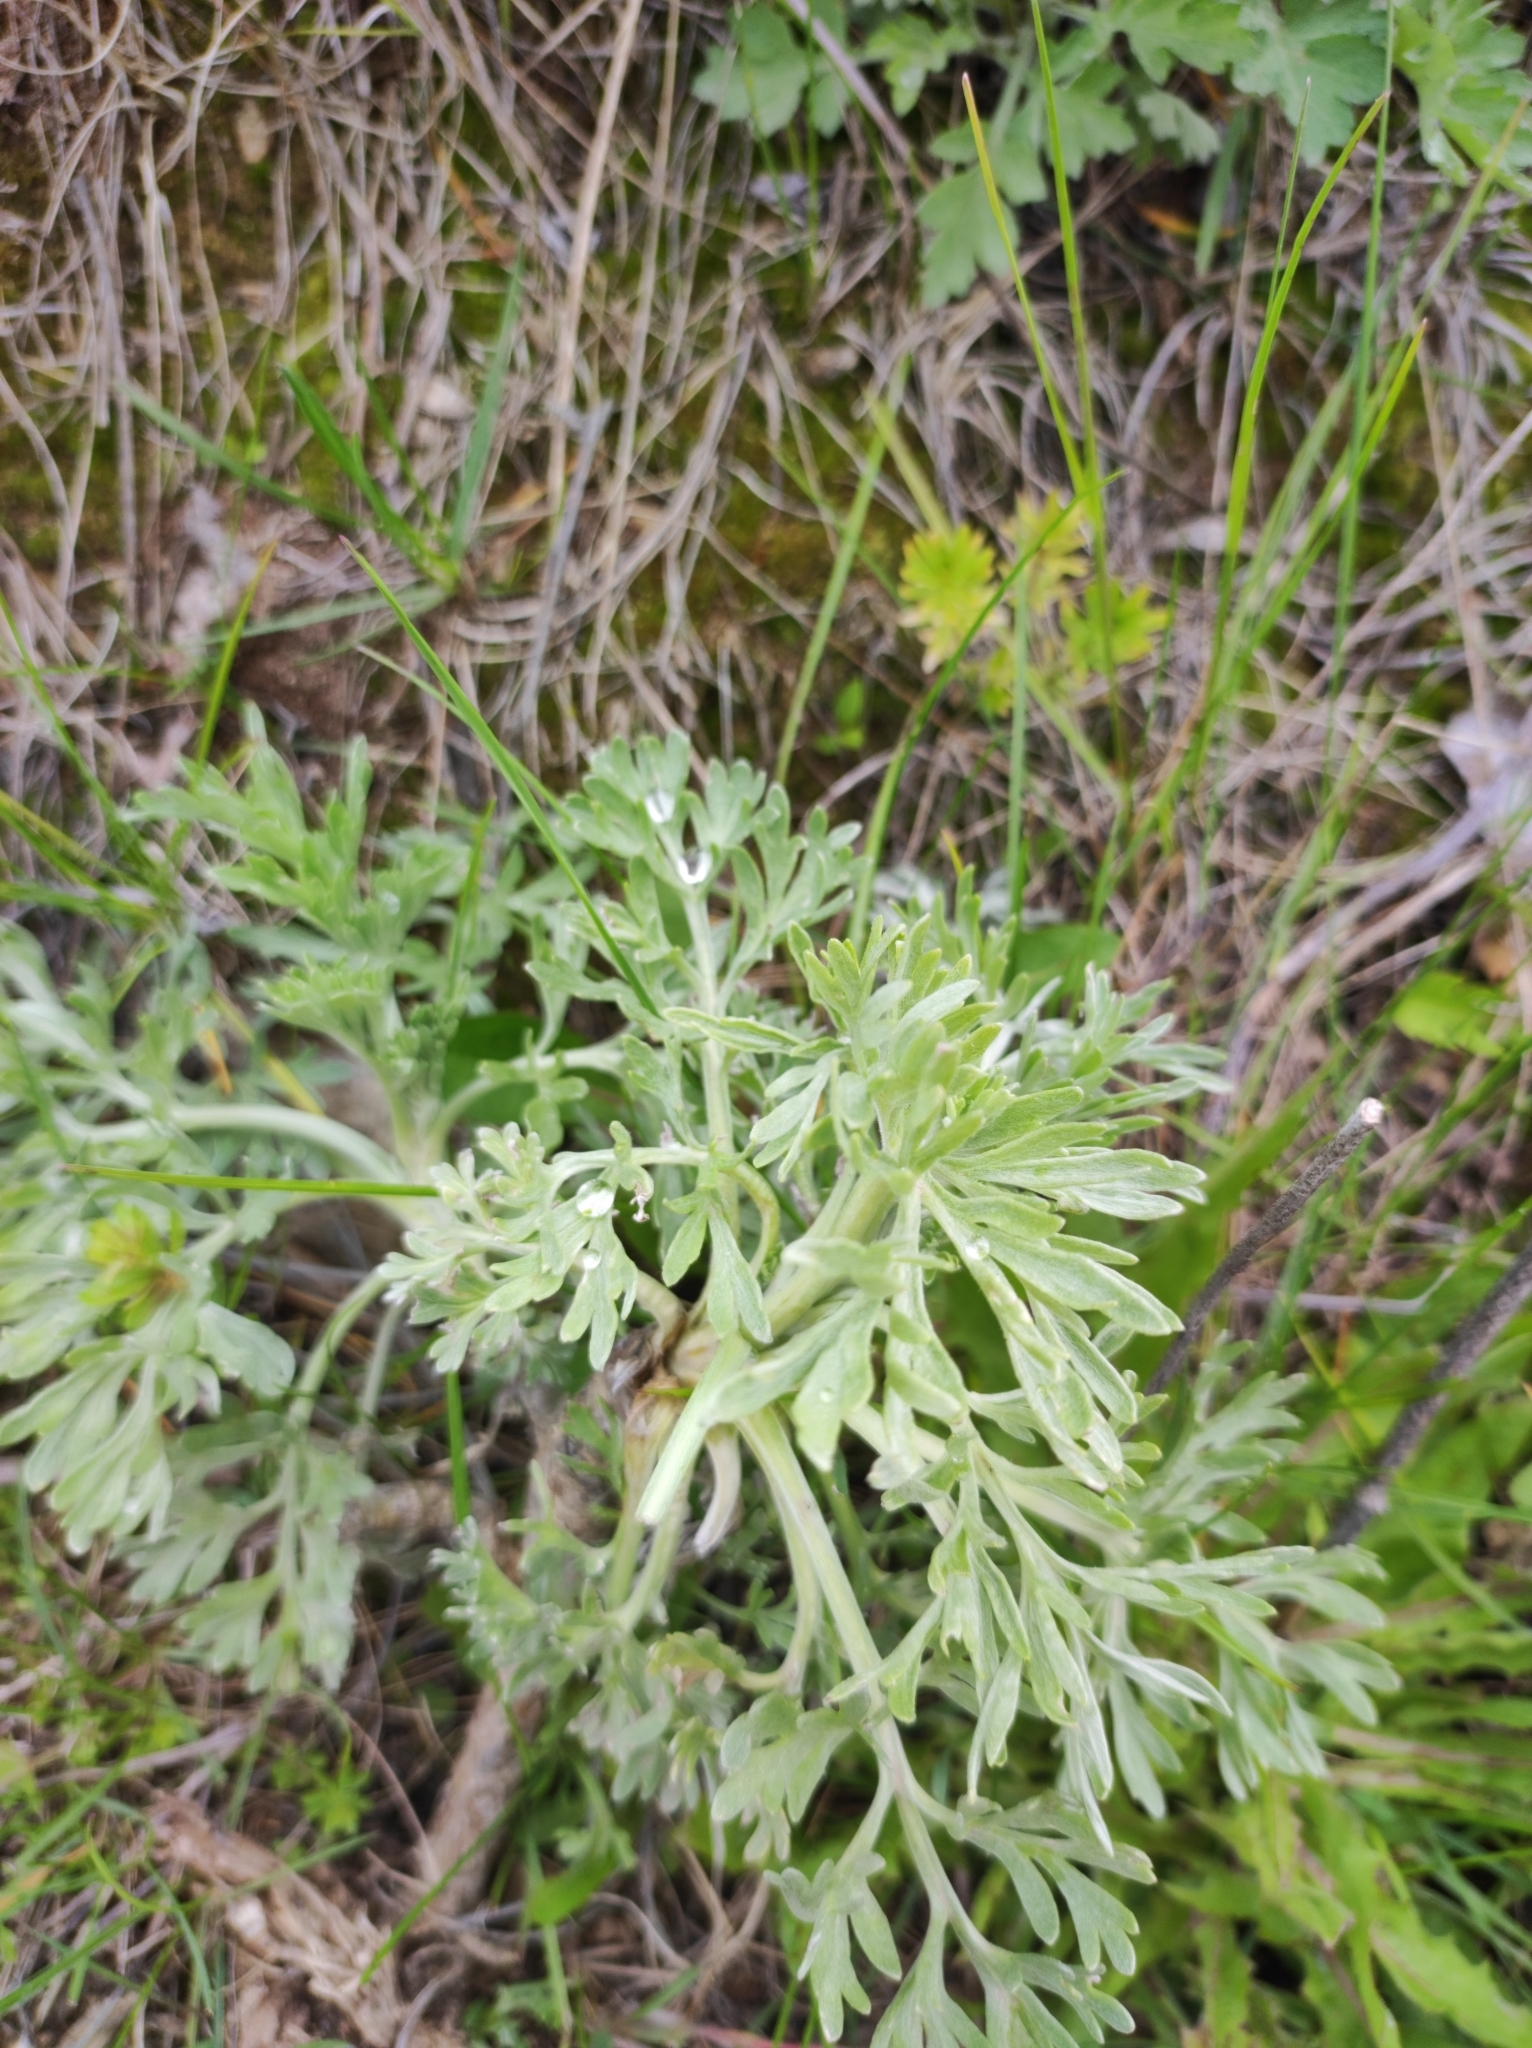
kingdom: Plantae
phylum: Tracheophyta
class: Magnoliopsida
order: Asterales
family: Asteraceae
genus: Artemisia
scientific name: Artemisia absinthium
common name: Wormwood
